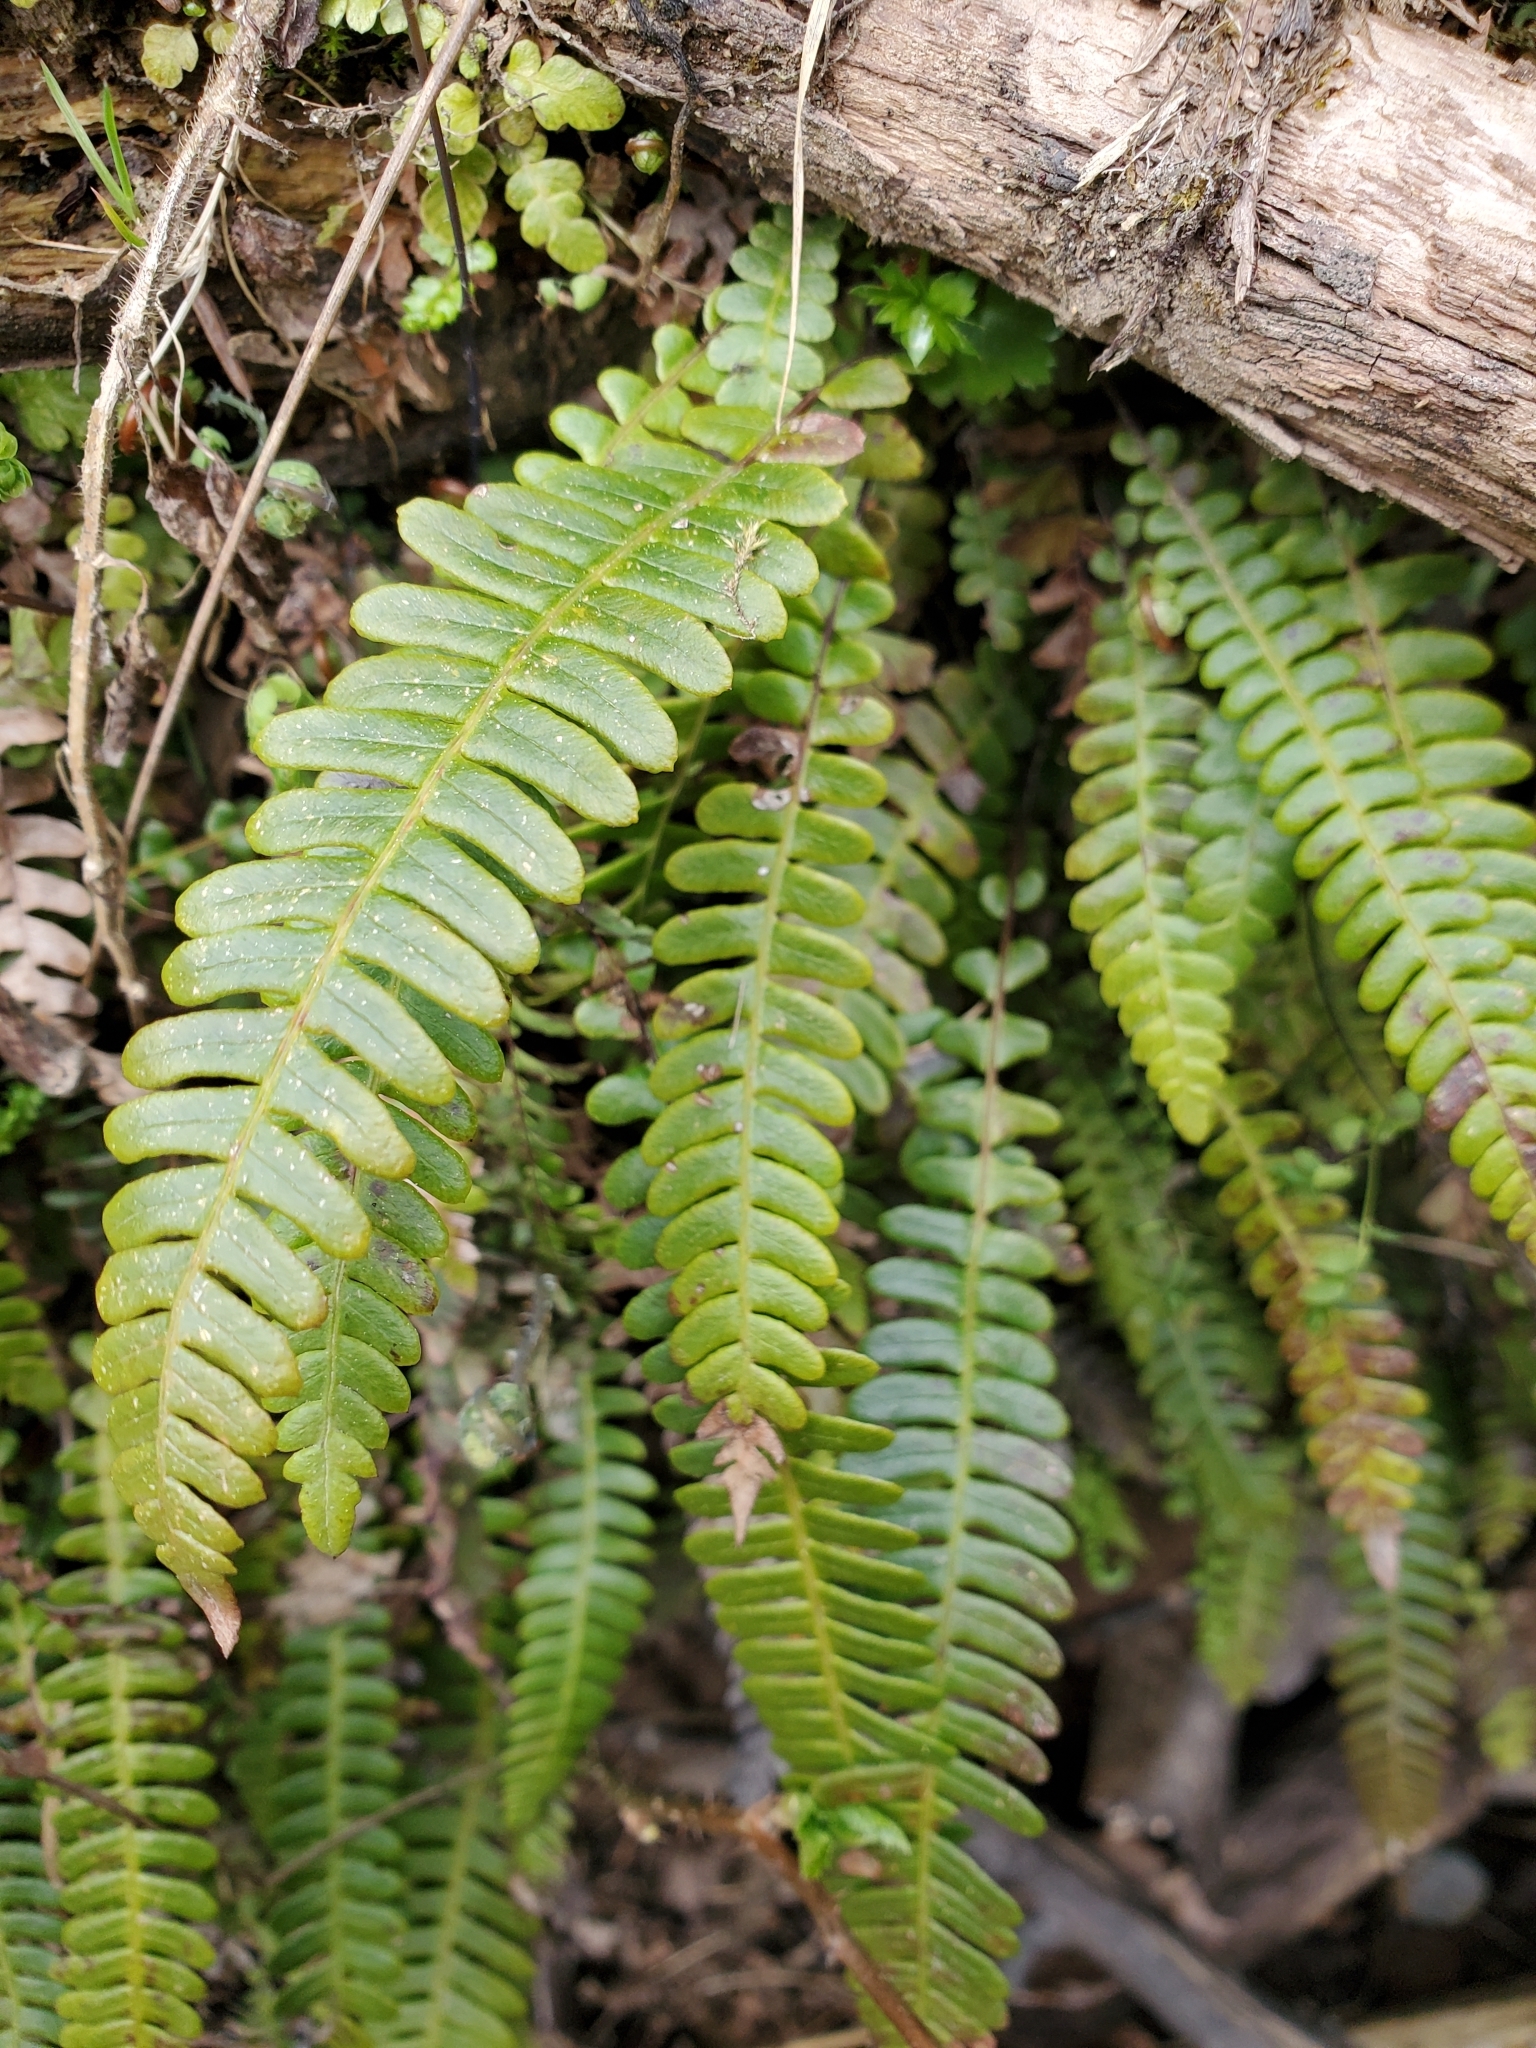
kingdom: Plantae
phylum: Tracheophyta
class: Polypodiopsida
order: Polypodiales
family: Blechnaceae
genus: Struthiopteris
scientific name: Struthiopteris spicant
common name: Deer fern
